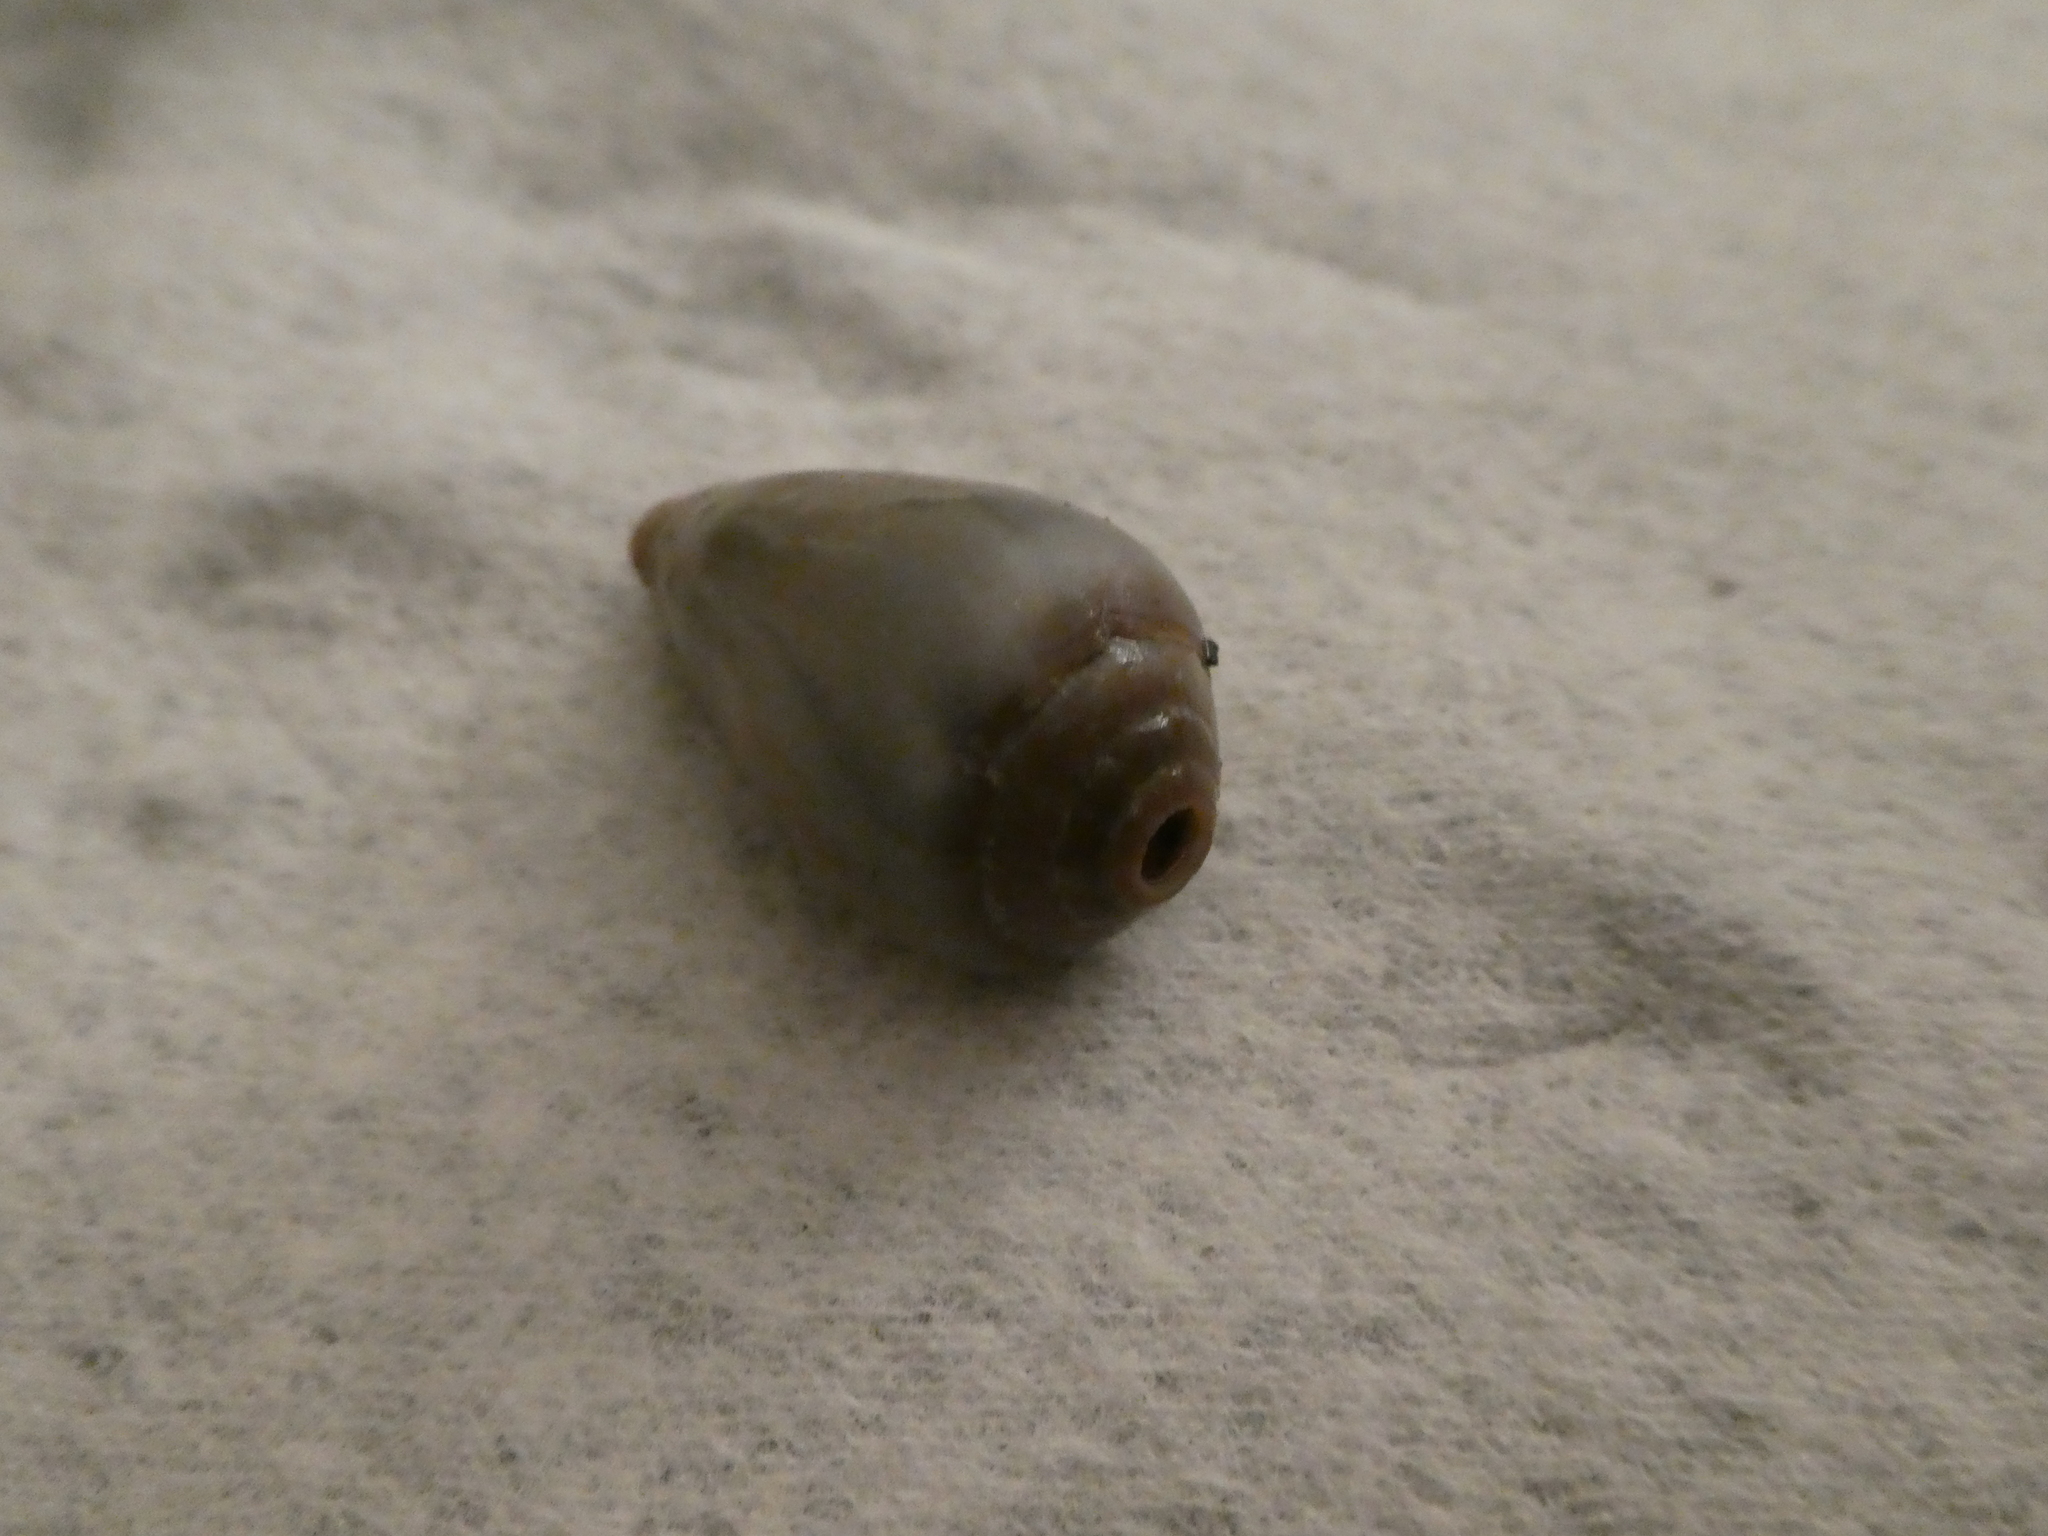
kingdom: Animalia
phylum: Mollusca
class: Gastropoda
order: Neogastropoda
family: Conidae
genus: Californiconus
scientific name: Californiconus californicus
